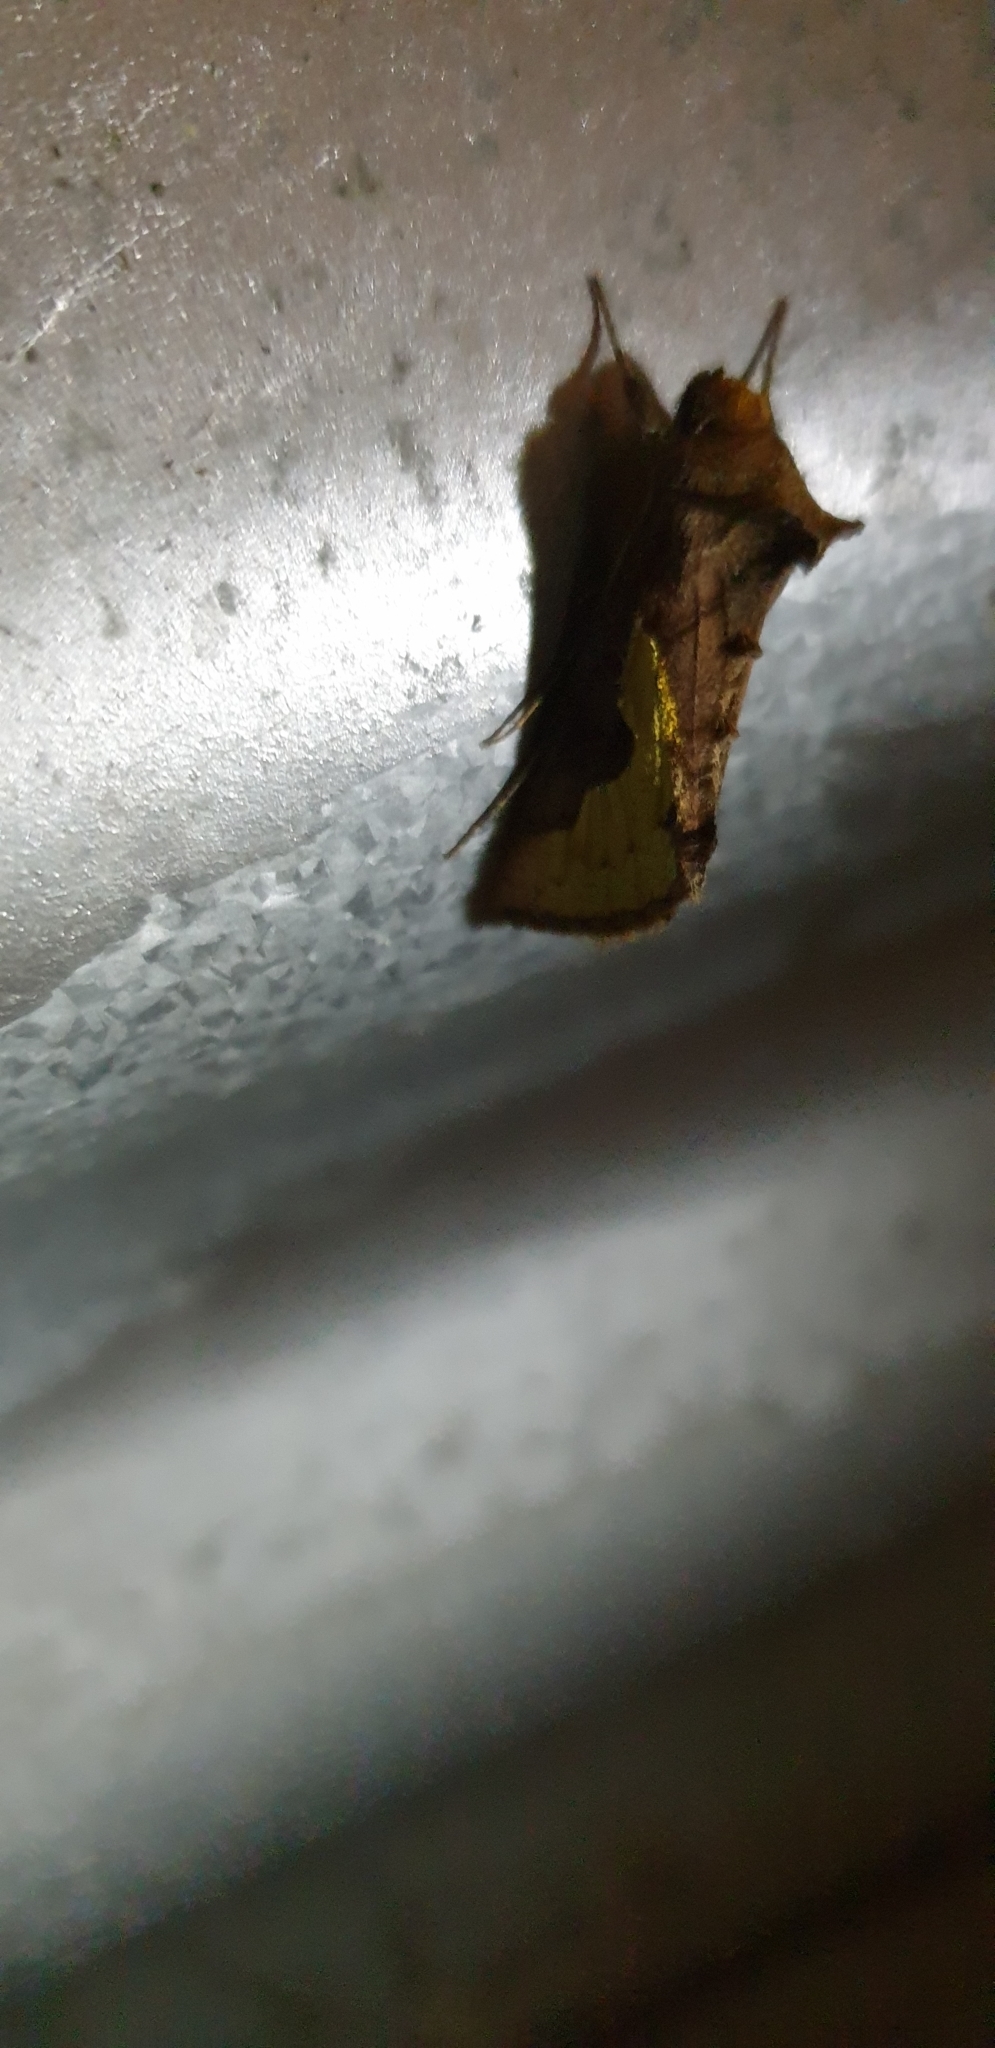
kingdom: Animalia
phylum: Arthropoda
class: Insecta
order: Lepidoptera
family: Noctuidae
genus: Thysanoplusia
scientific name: Thysanoplusia orichalcea
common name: Slender burnished brass, golden plusia
